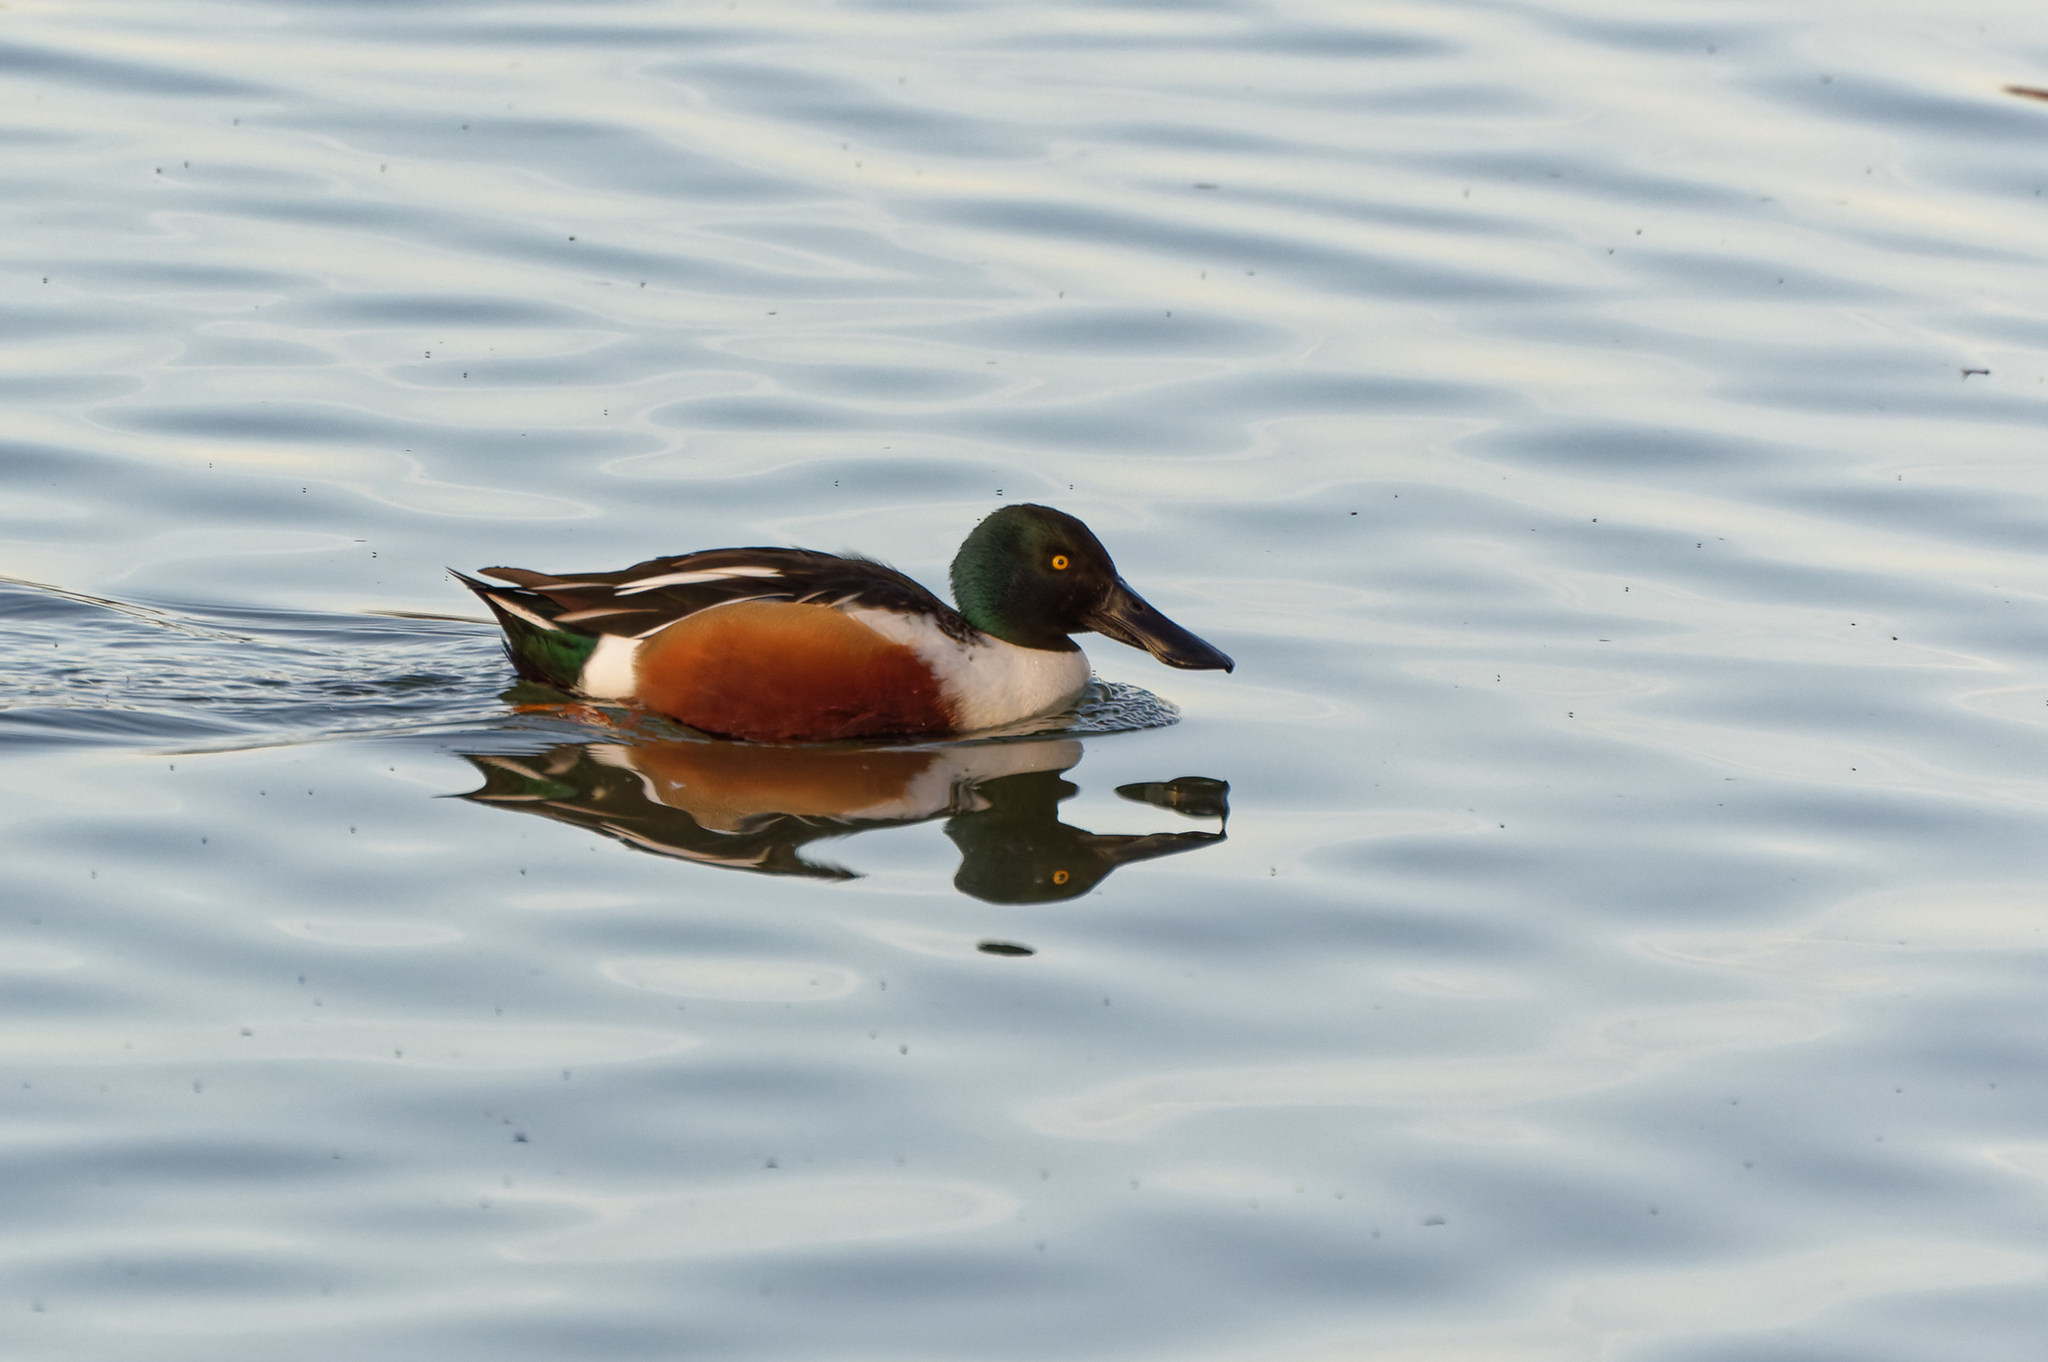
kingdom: Animalia
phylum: Chordata
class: Aves
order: Anseriformes
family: Anatidae
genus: Spatula
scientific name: Spatula clypeata
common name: Northern shoveler
